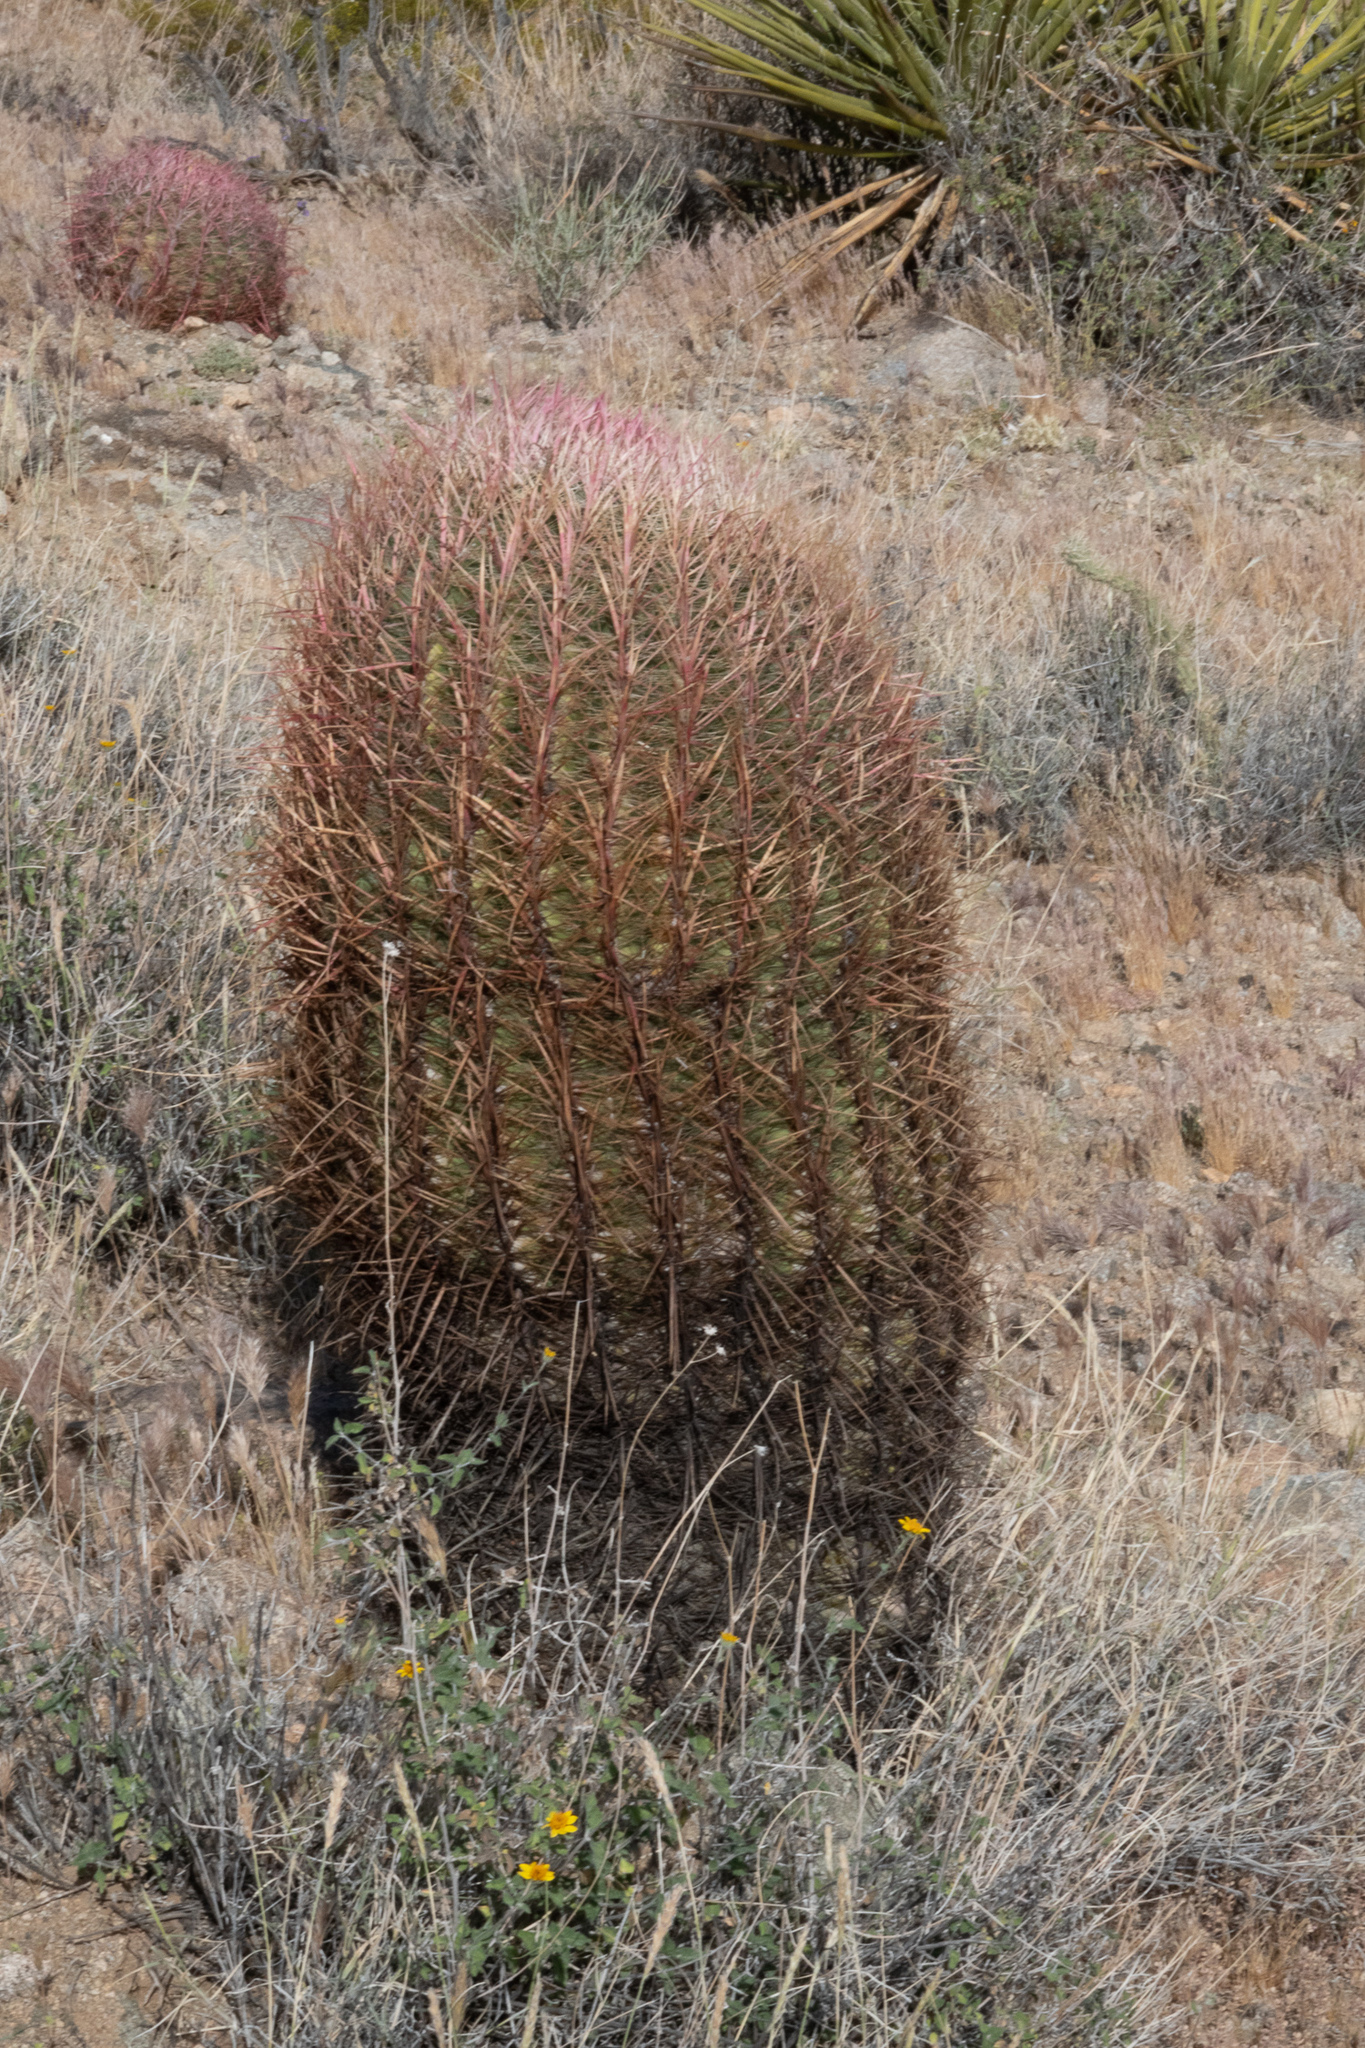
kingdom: Plantae
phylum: Tracheophyta
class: Magnoliopsida
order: Caryophyllales
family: Cactaceae
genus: Ferocactus
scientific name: Ferocactus cylindraceus
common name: California barrel cactus
